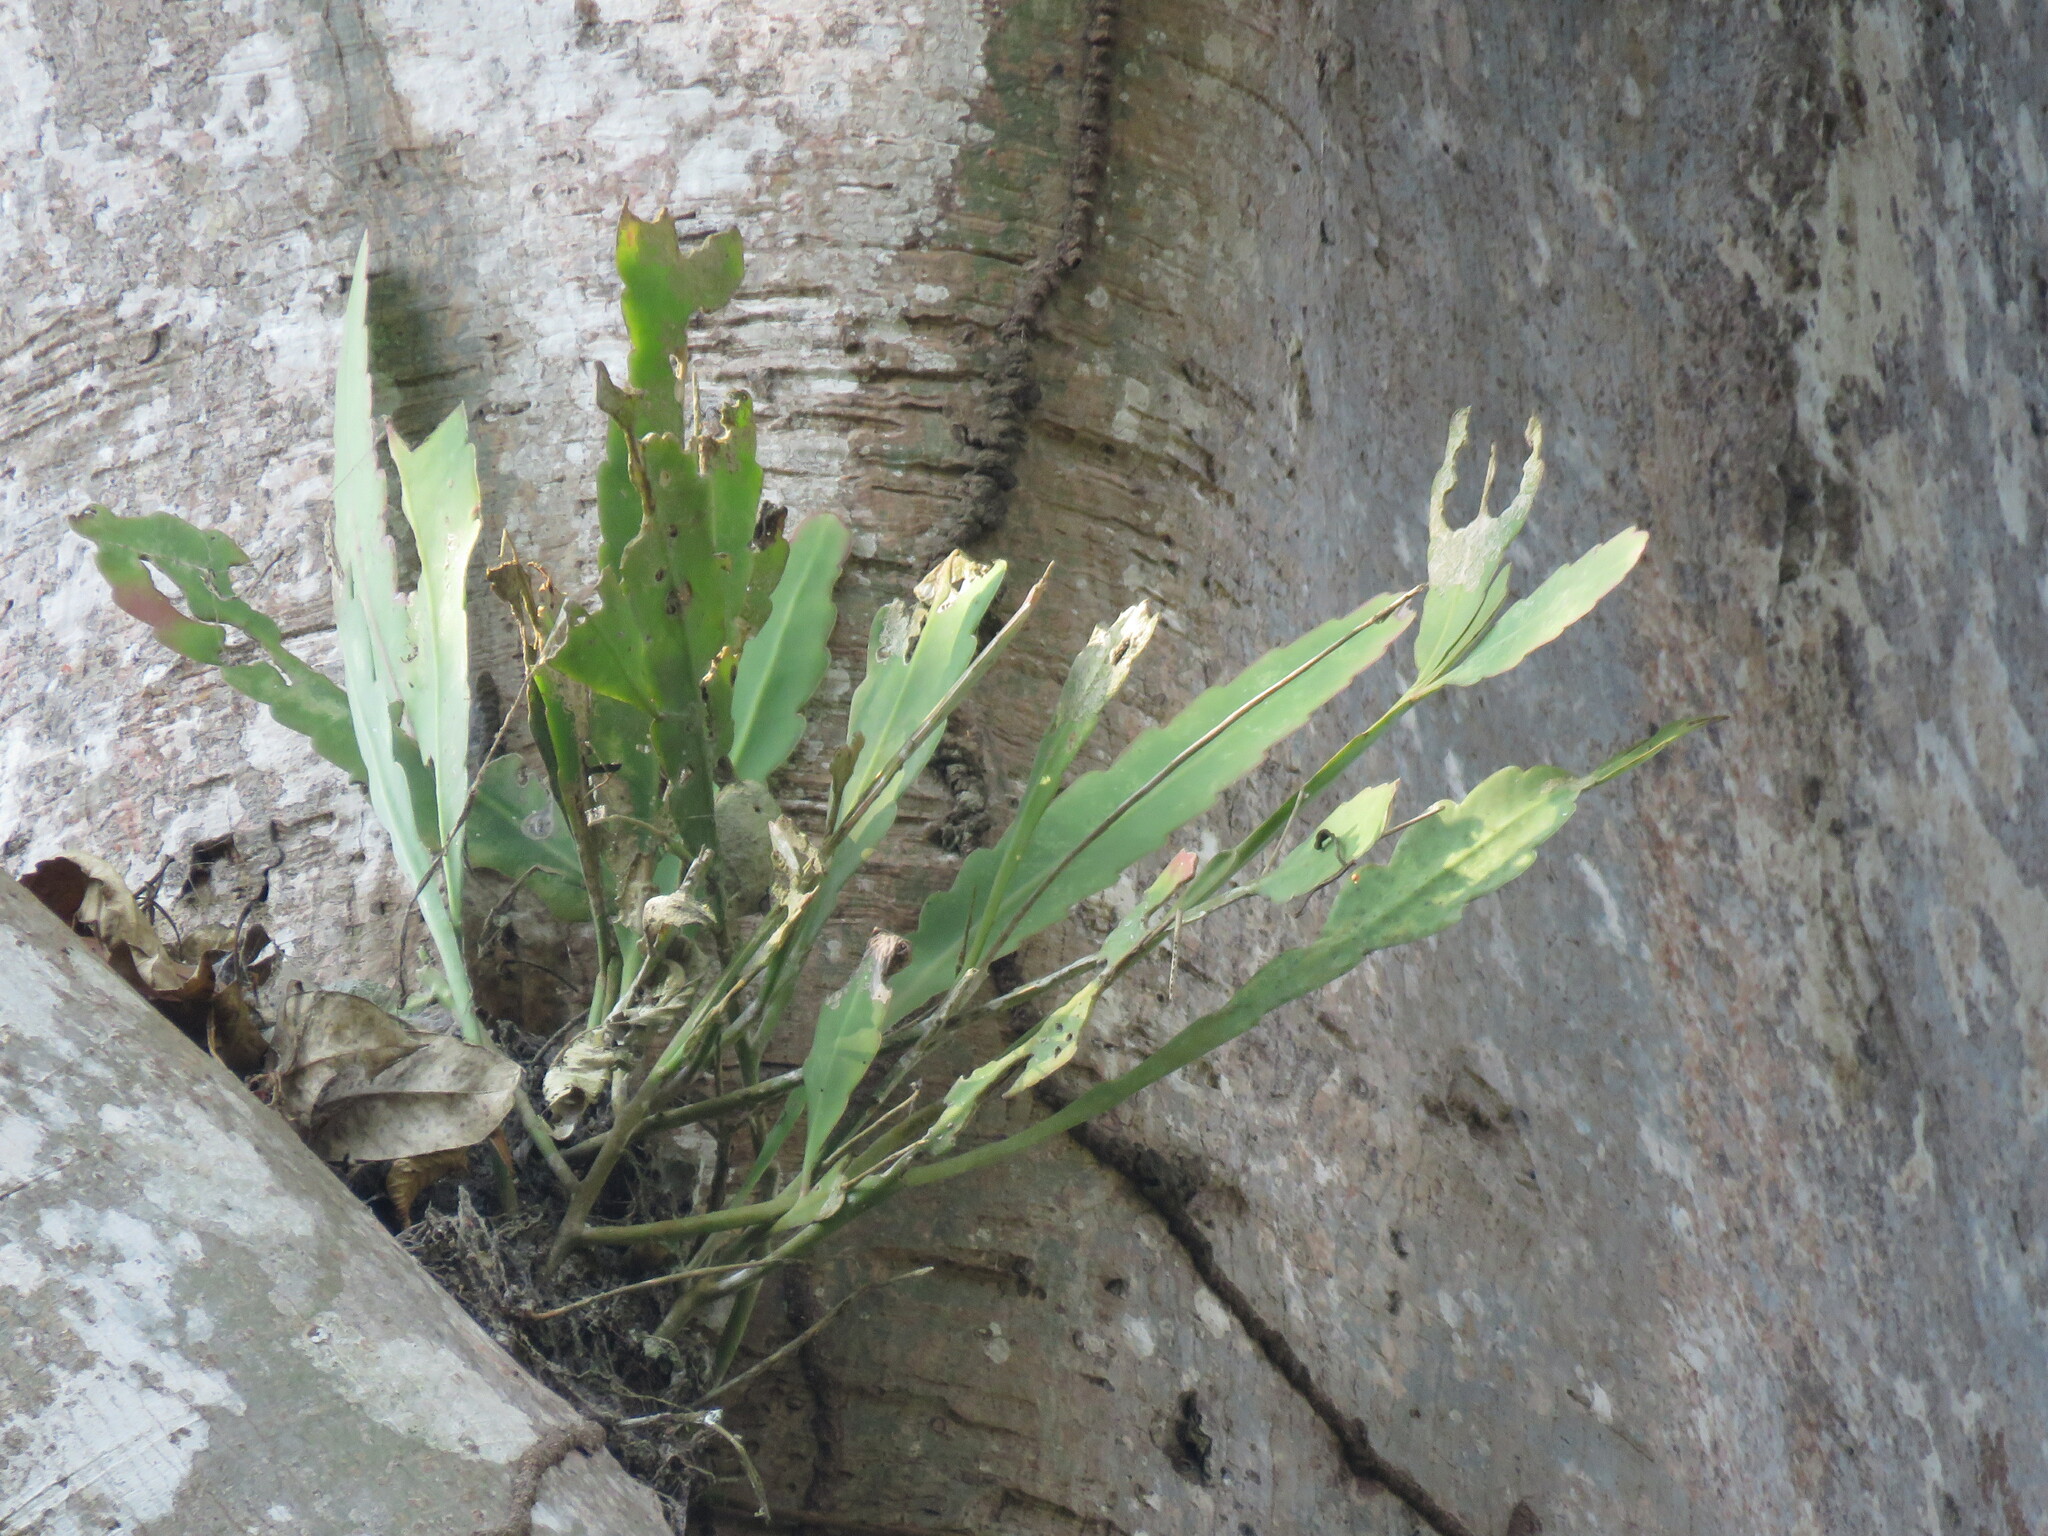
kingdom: Plantae
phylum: Tracheophyta
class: Magnoliopsida
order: Caryophyllales
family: Cactaceae
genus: Epiphyllum
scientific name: Epiphyllum phyllanthus
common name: Climbing cactus
